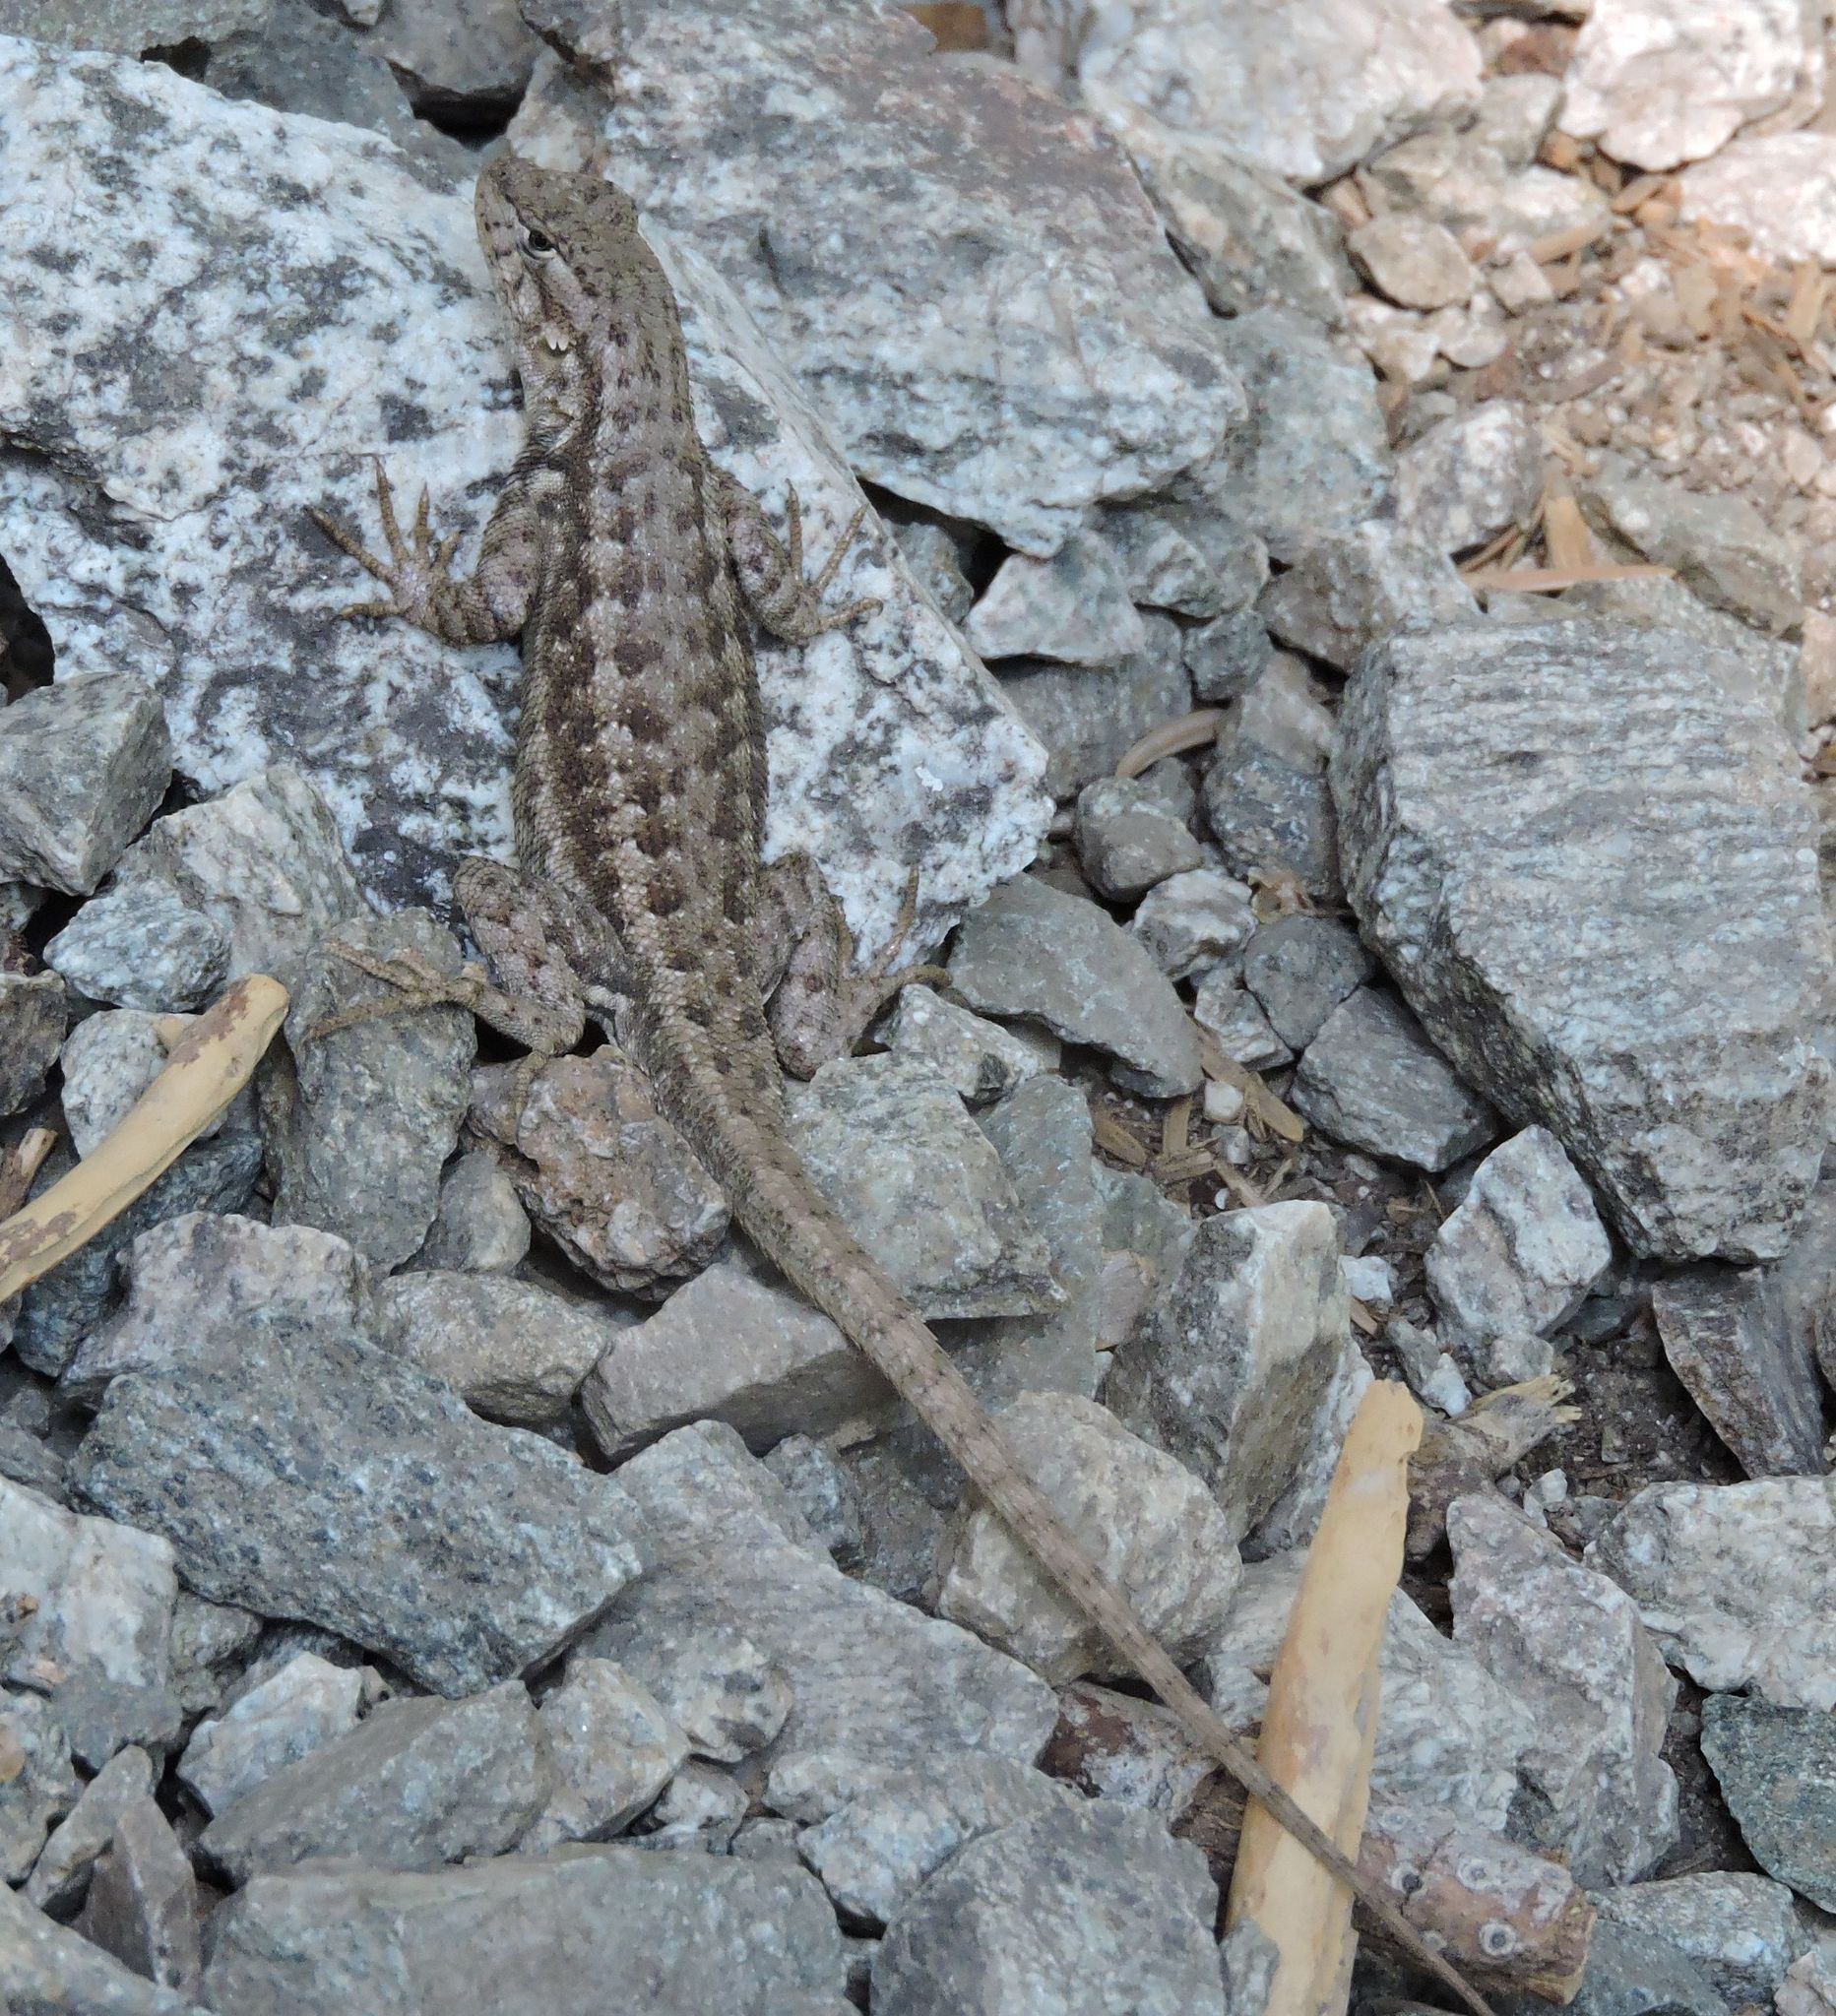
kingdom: Animalia
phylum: Chordata
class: Squamata
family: Phrynosomatidae
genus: Sceloporus
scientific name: Sceloporus graciosus
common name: Sagebrush lizard
